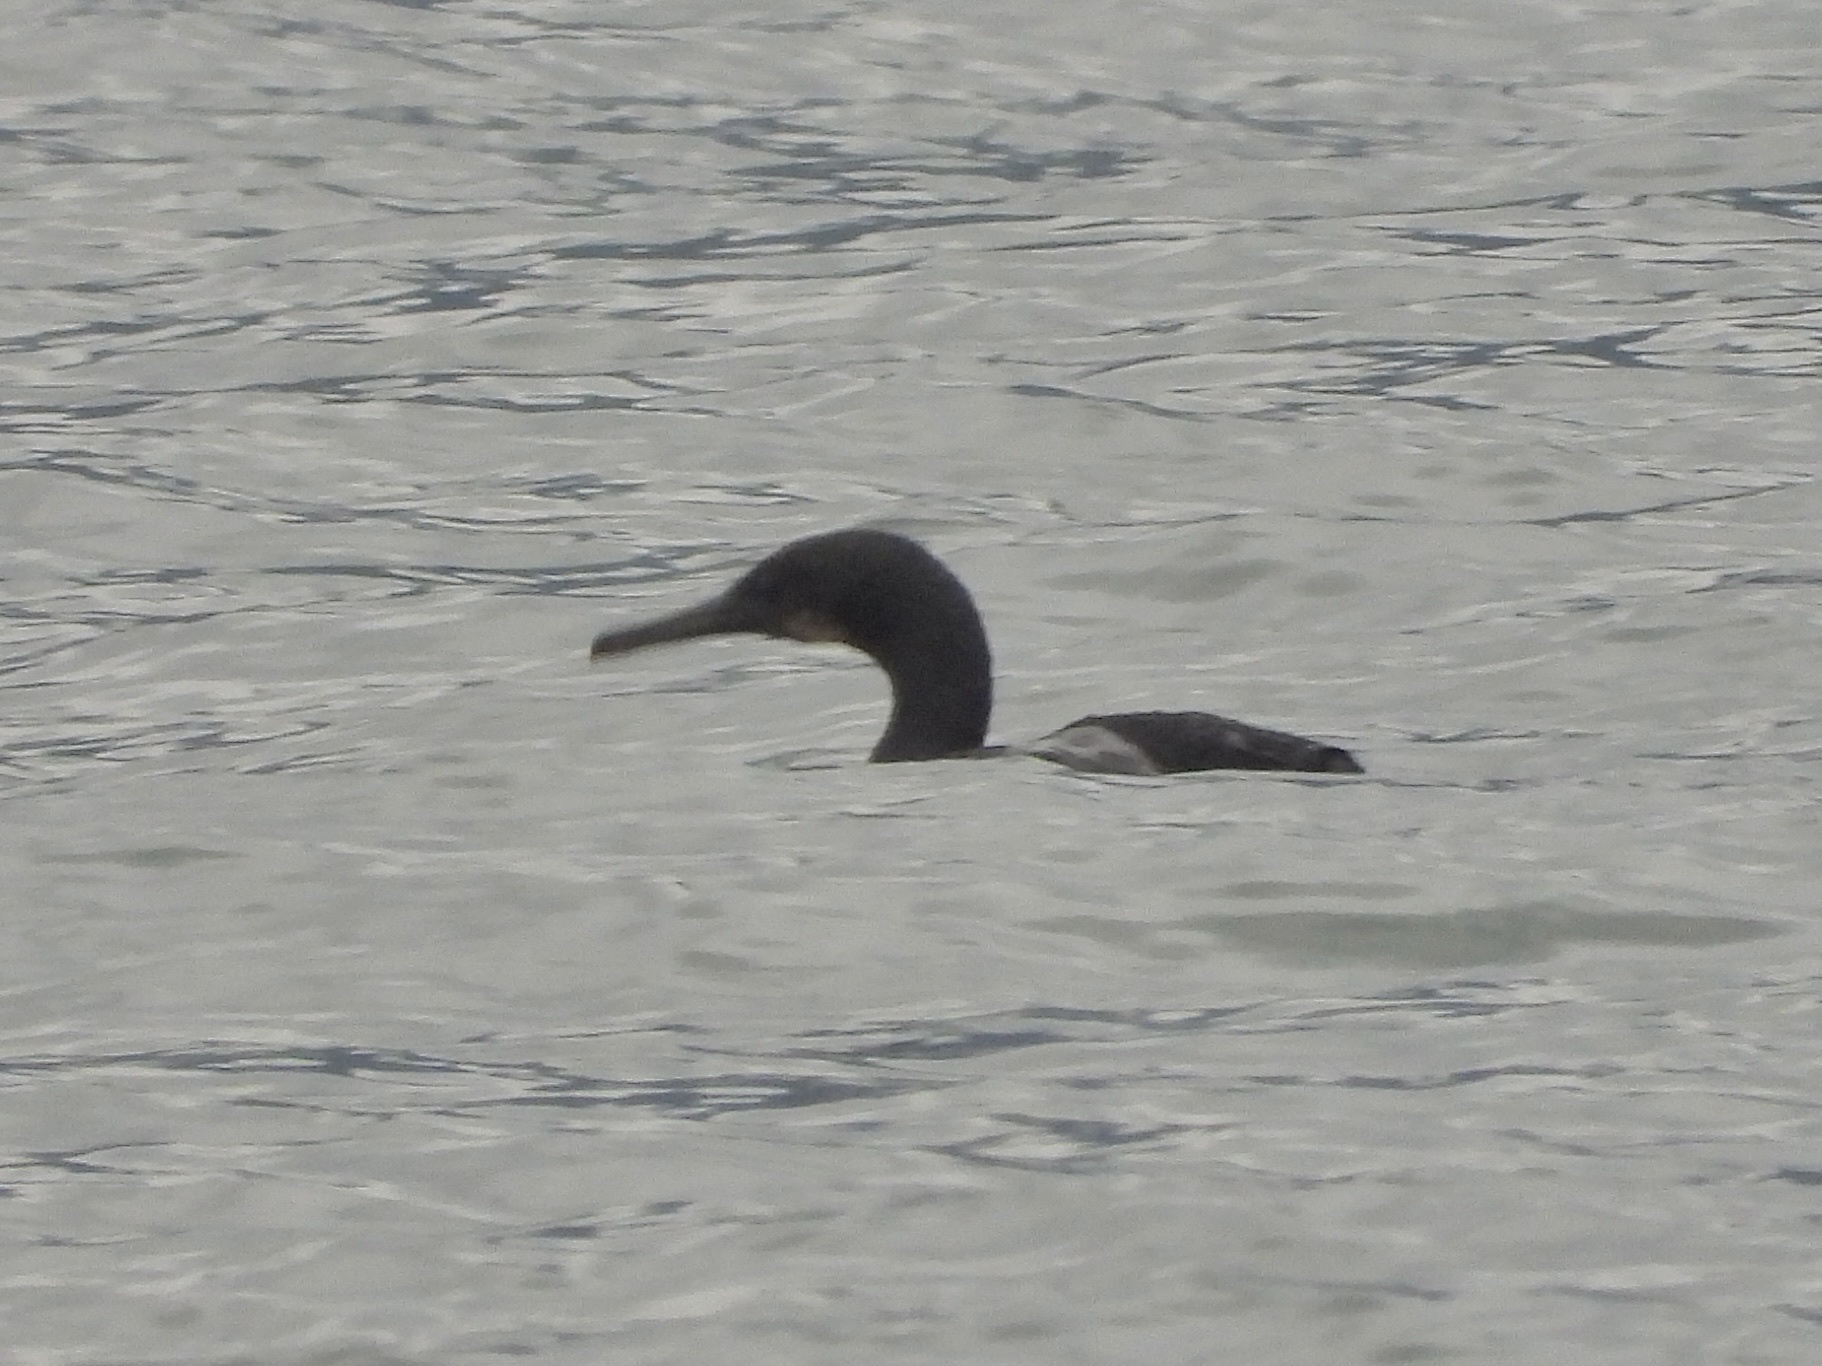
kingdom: Animalia
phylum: Chordata
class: Aves
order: Suliformes
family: Phalacrocoracidae
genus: Urile
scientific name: Urile penicillatus
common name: Brandt's cormorant
